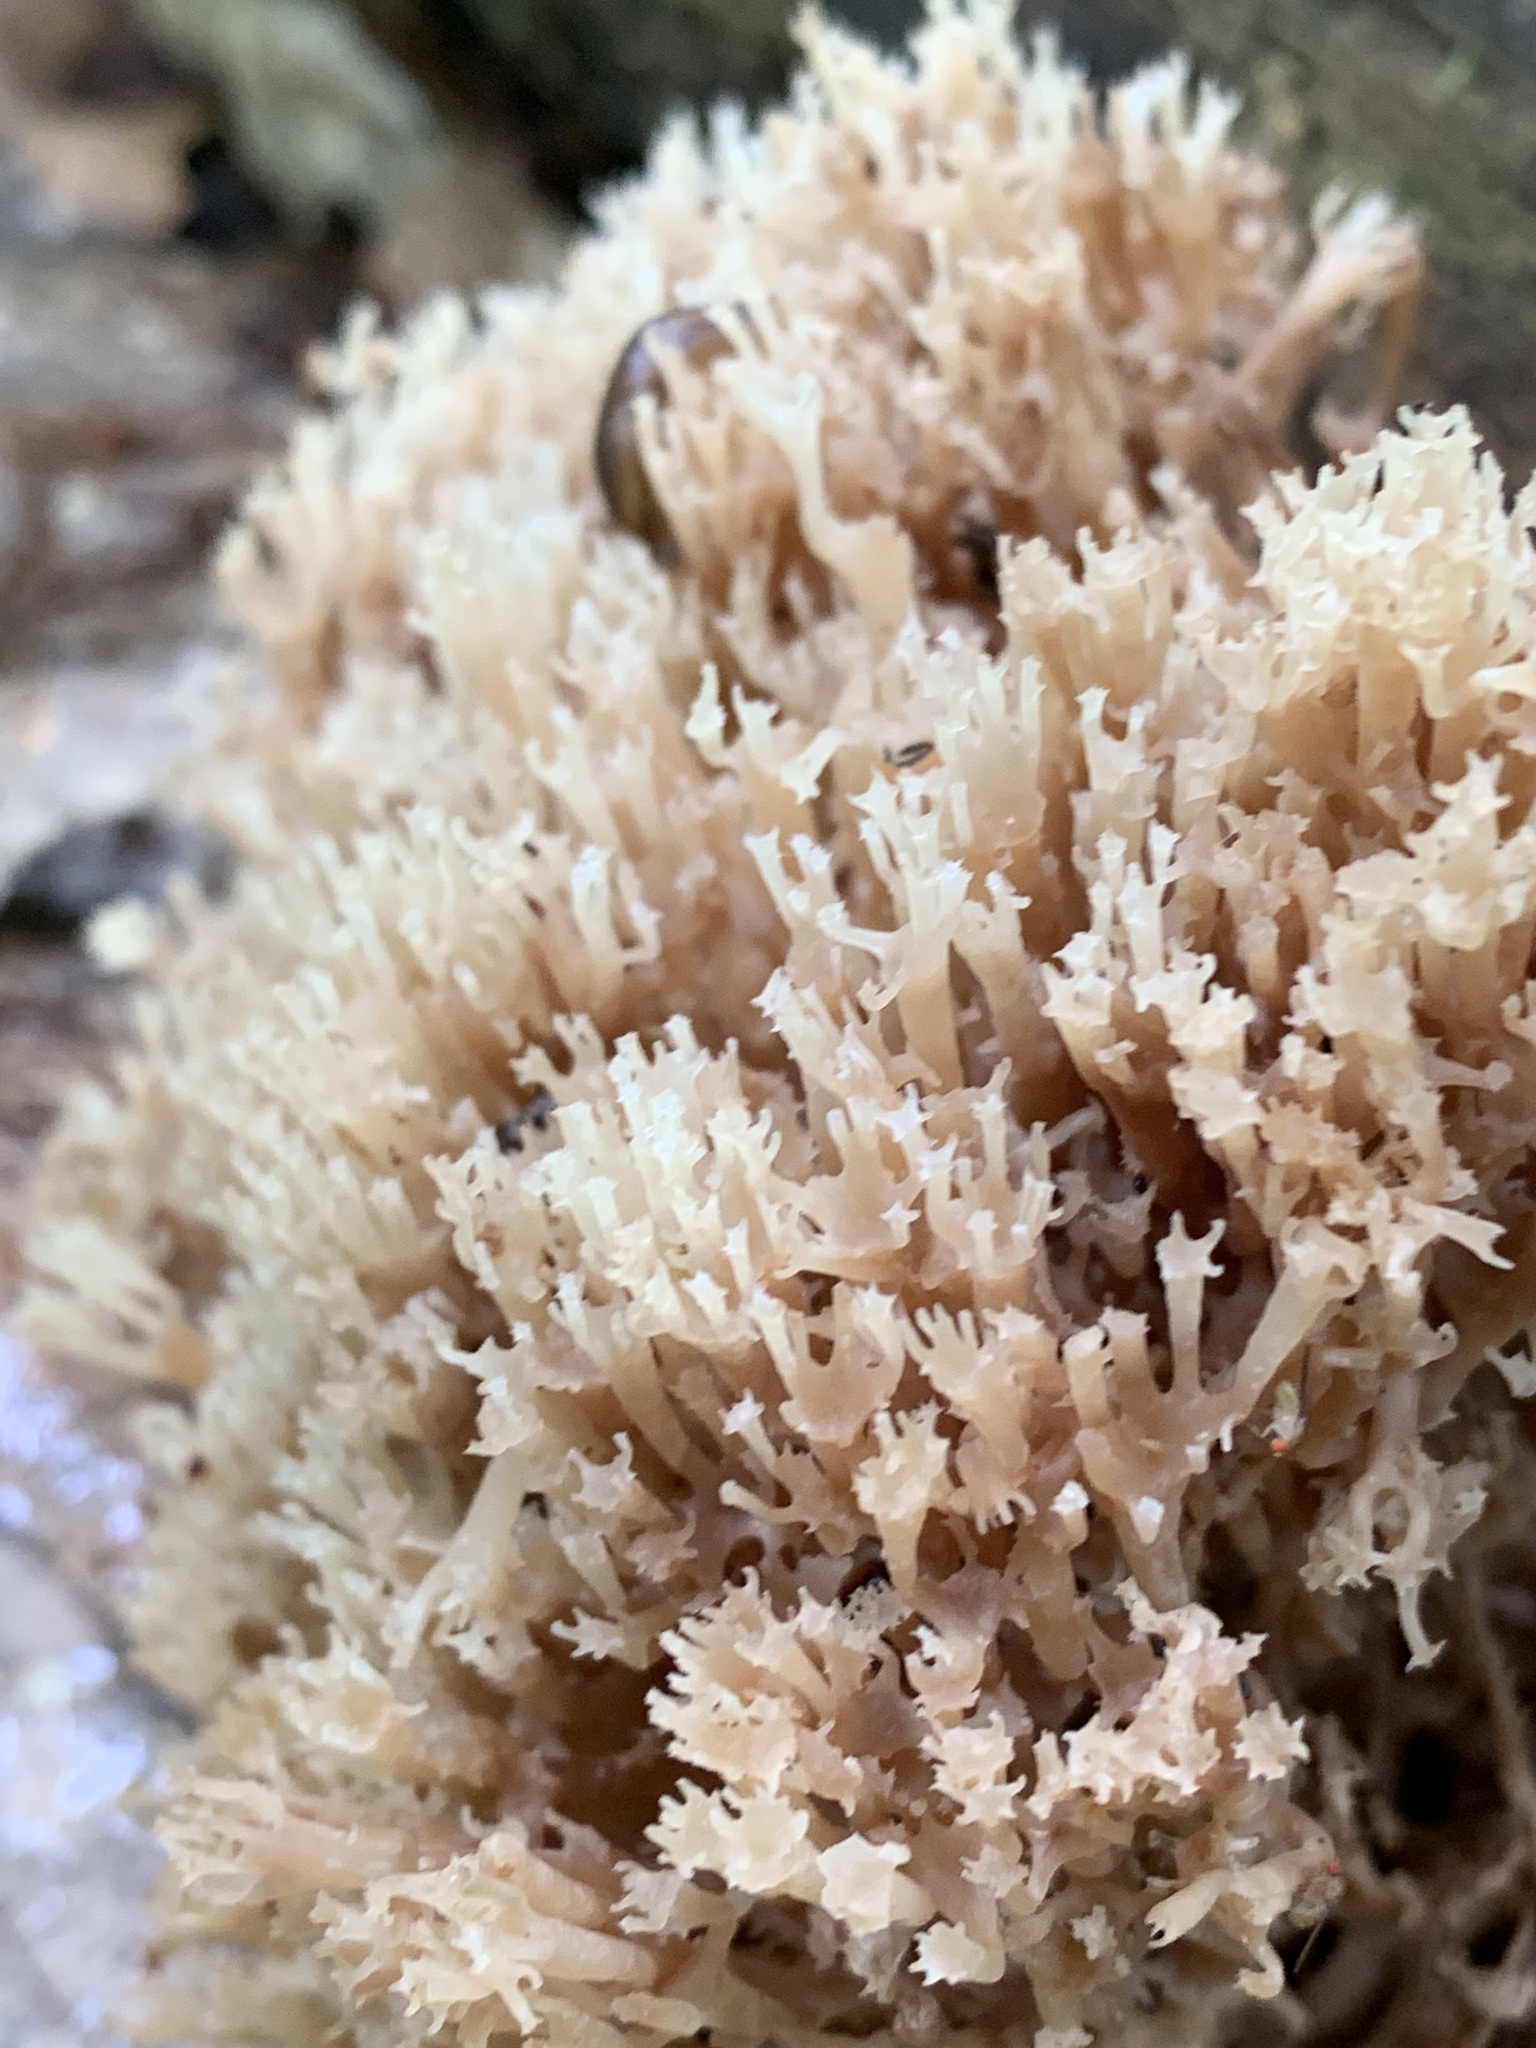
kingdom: Fungi
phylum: Basidiomycota
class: Agaricomycetes
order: Russulales
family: Auriscalpiaceae
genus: Artomyces
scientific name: Artomyces pyxidatus
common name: Crown-tipped coral fungus
